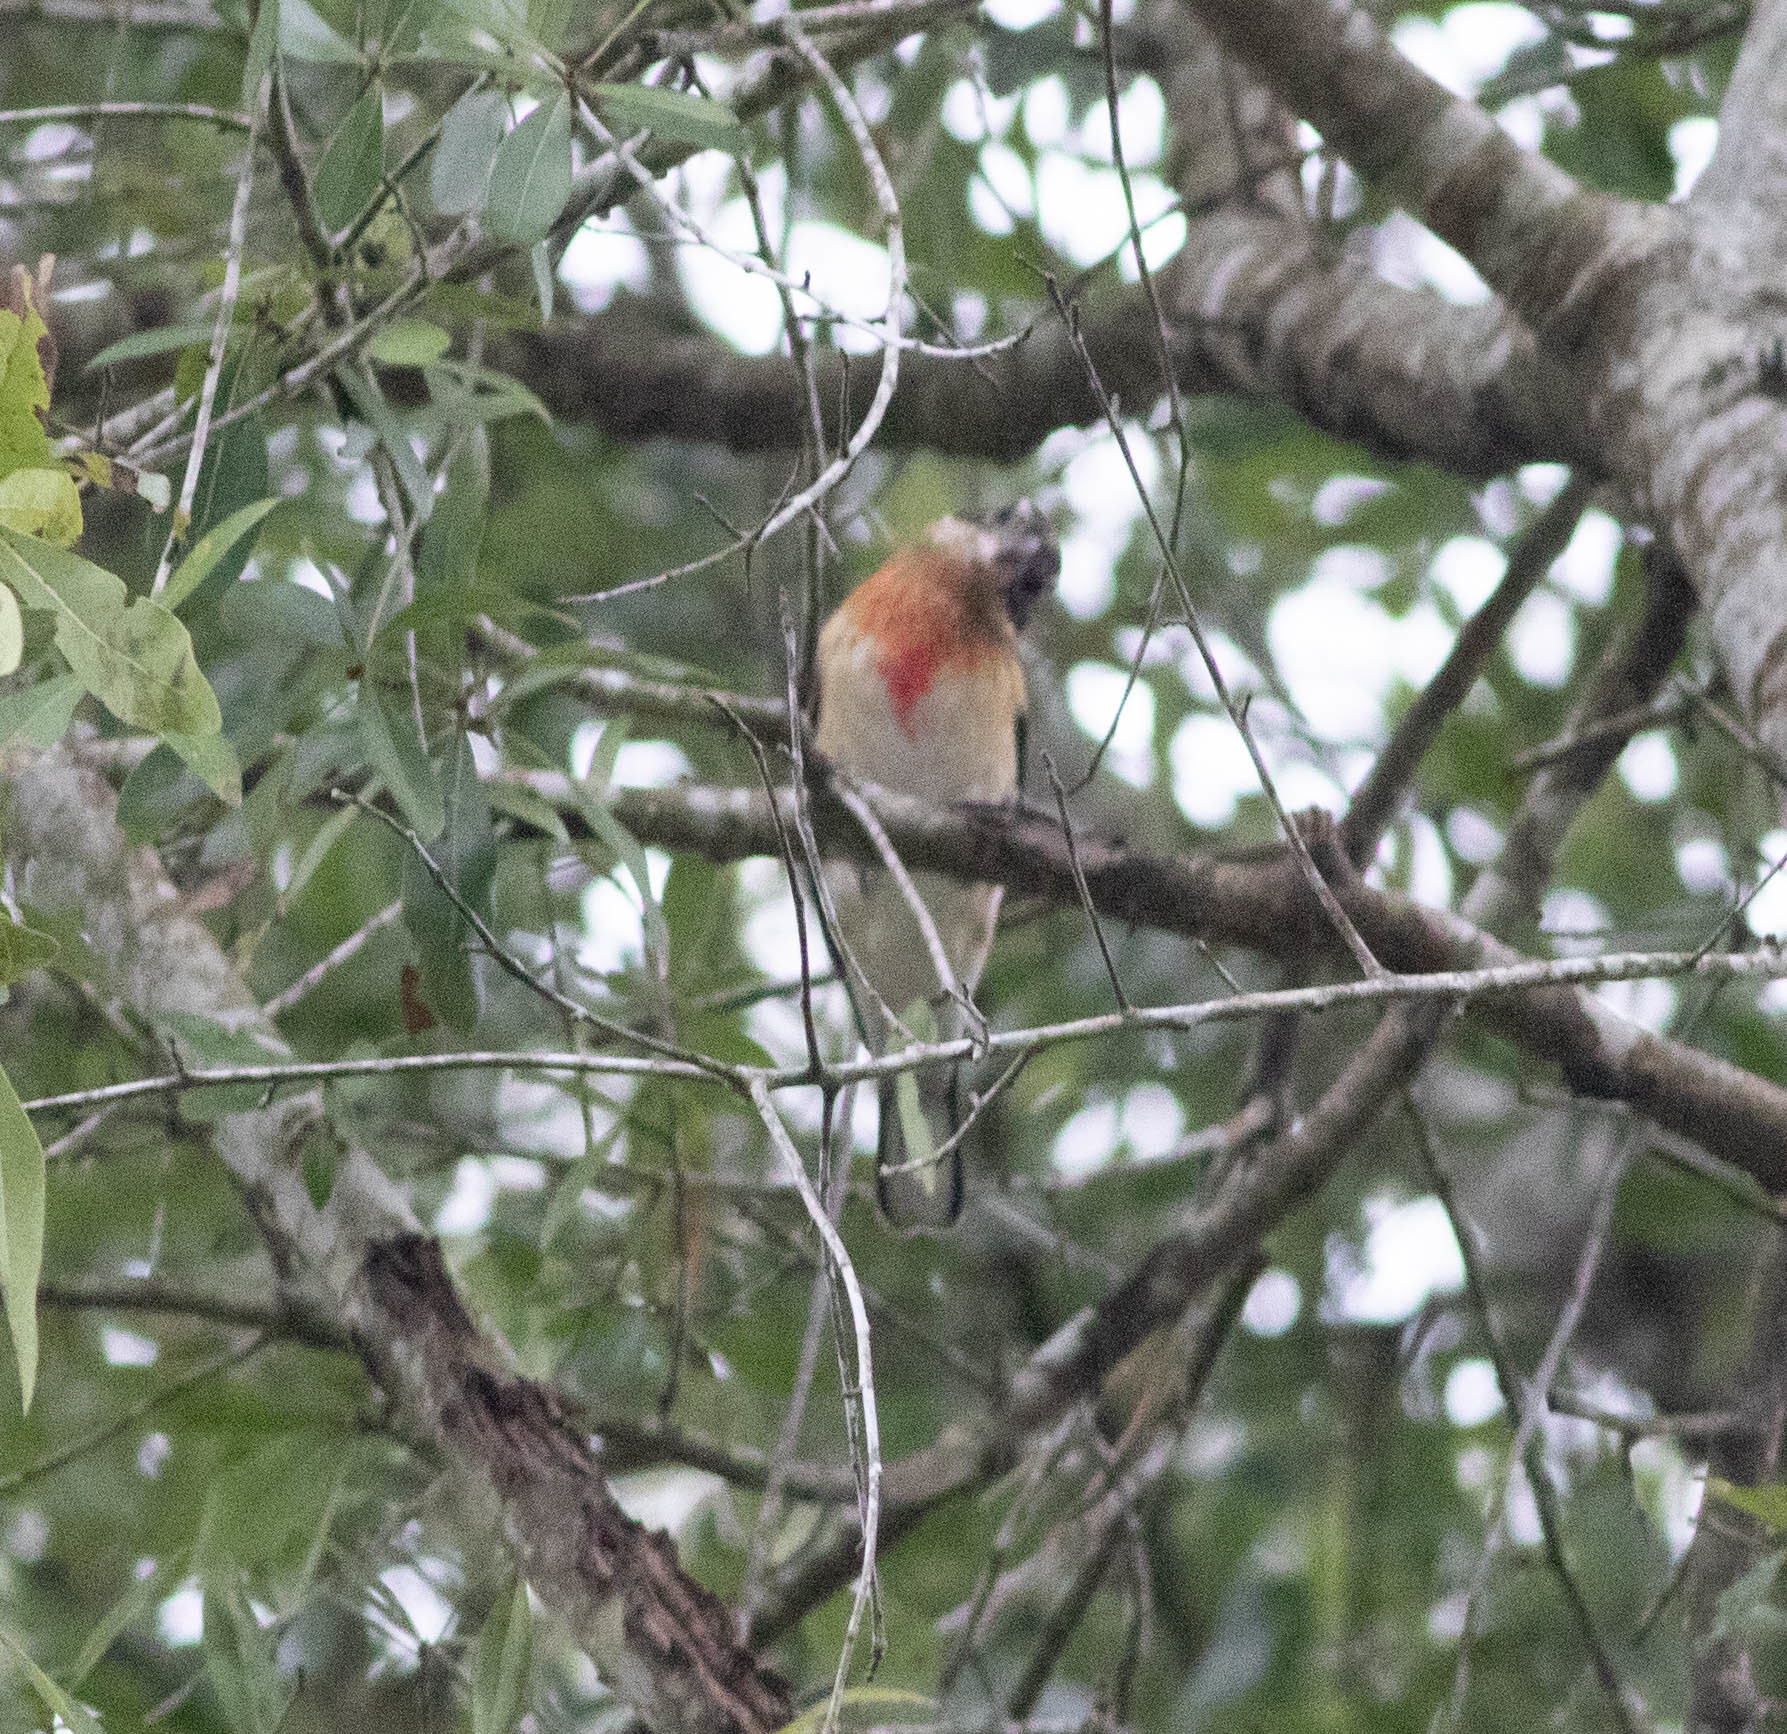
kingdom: Animalia
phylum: Chordata
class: Aves
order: Passeriformes
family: Cardinalidae
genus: Pheucticus
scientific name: Pheucticus ludovicianus
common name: Rose-breasted grosbeak
